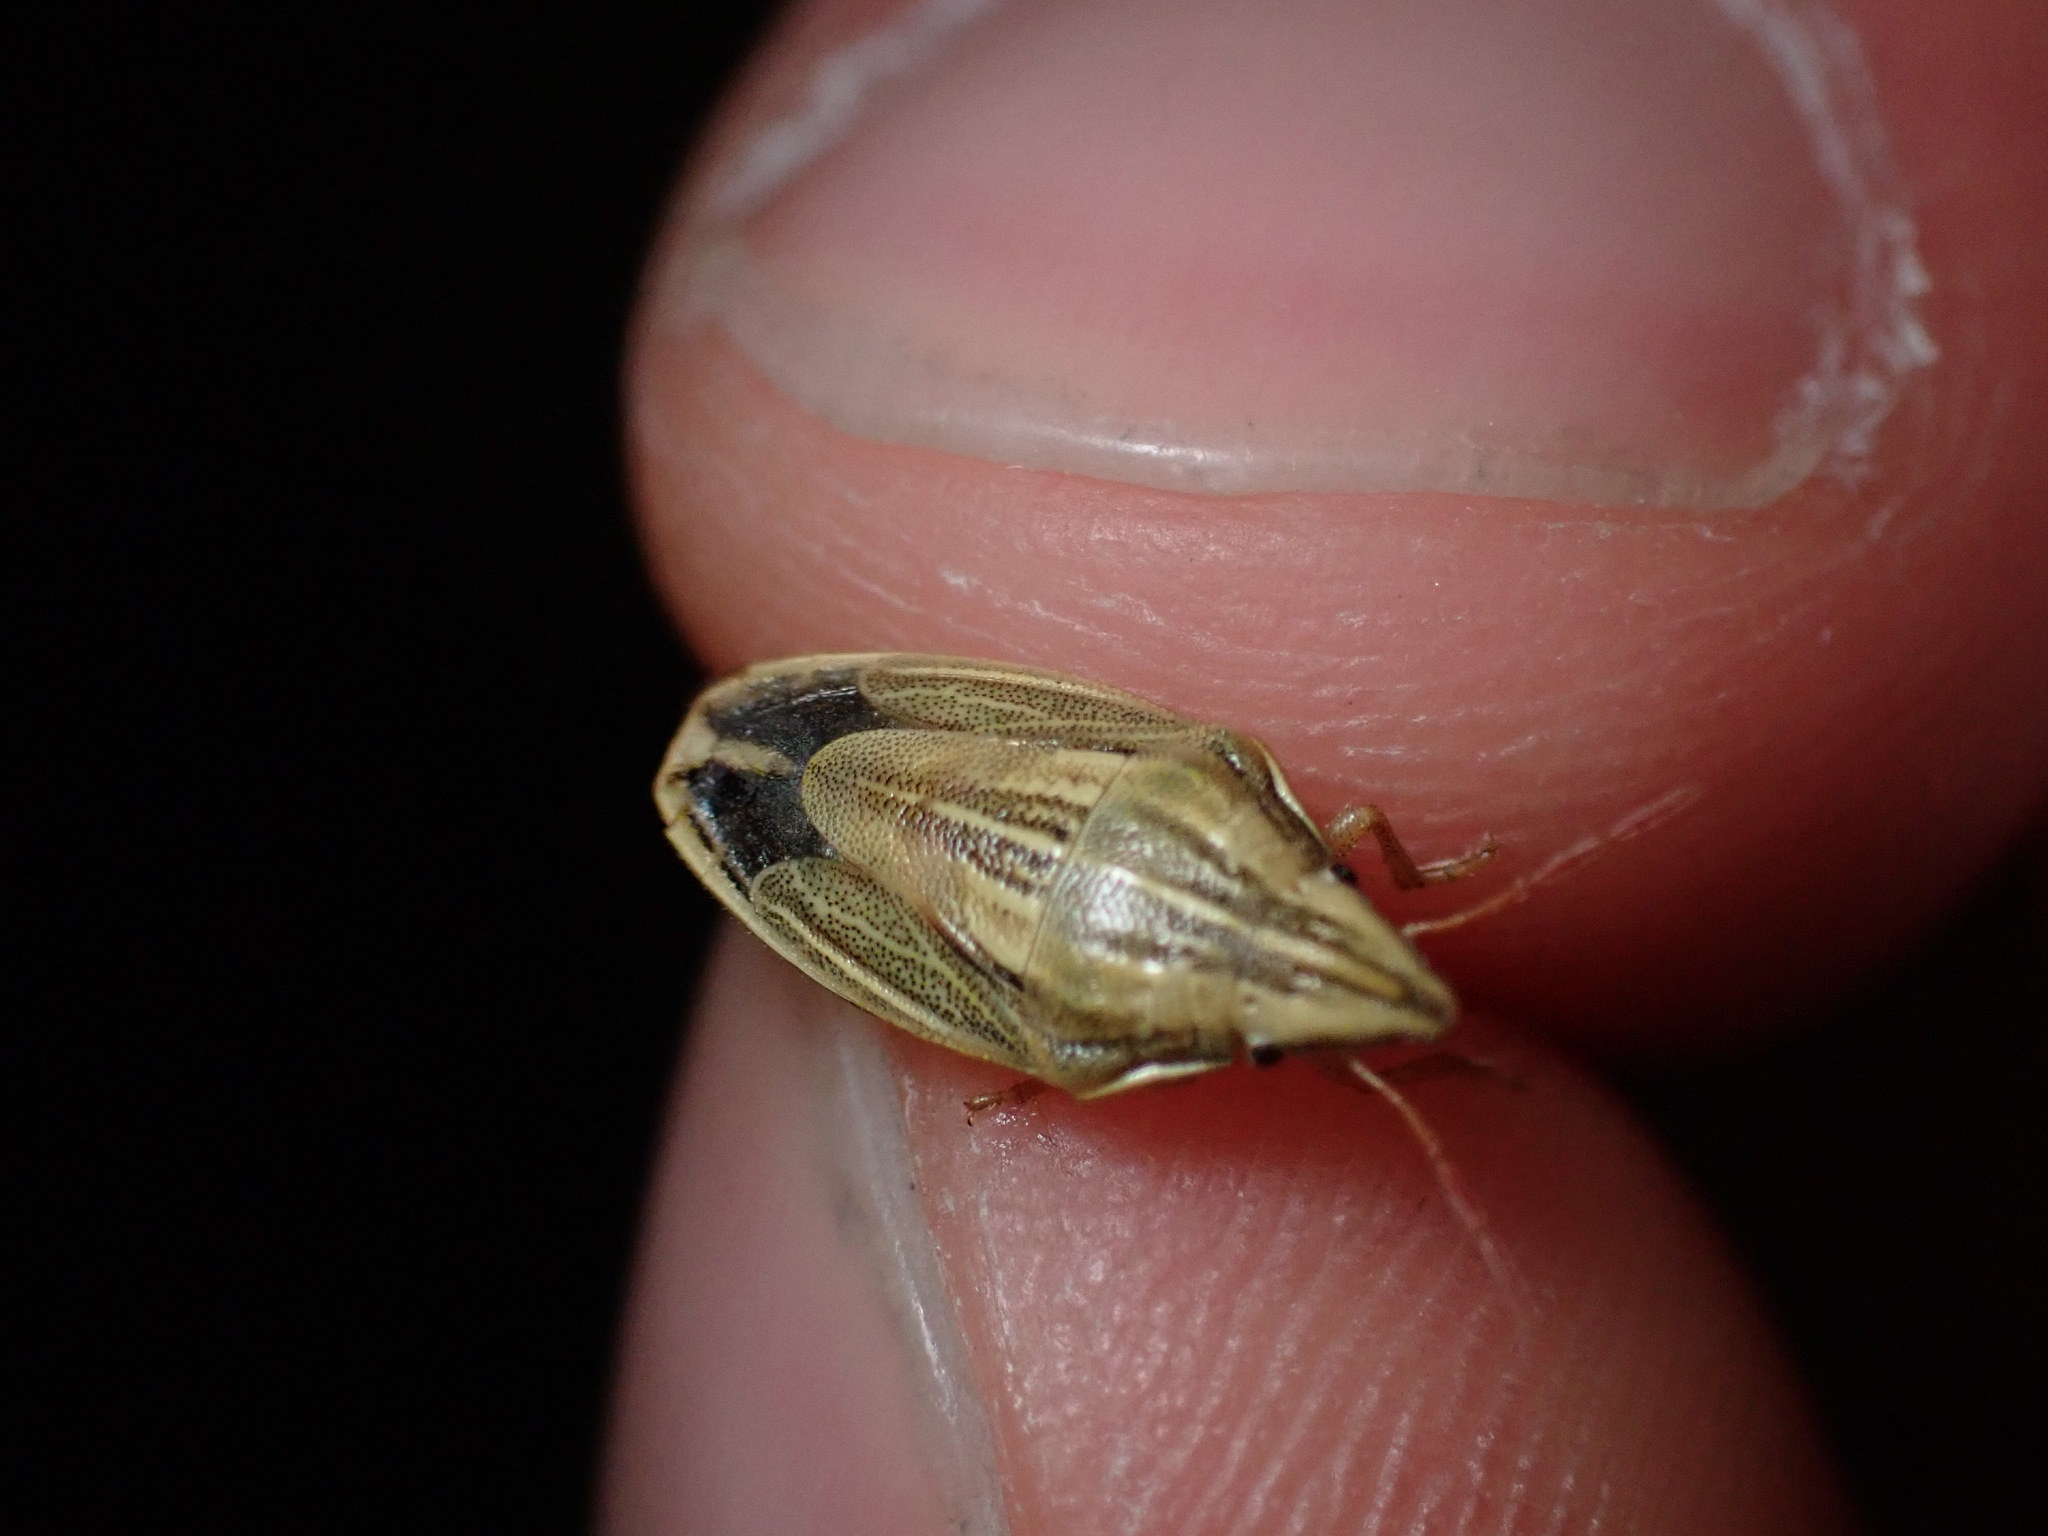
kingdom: Animalia
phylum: Arthropoda
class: Insecta
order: Hemiptera
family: Pentatomidae
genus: Aelia
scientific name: Aelia acuminata
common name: Bishop's mitre
